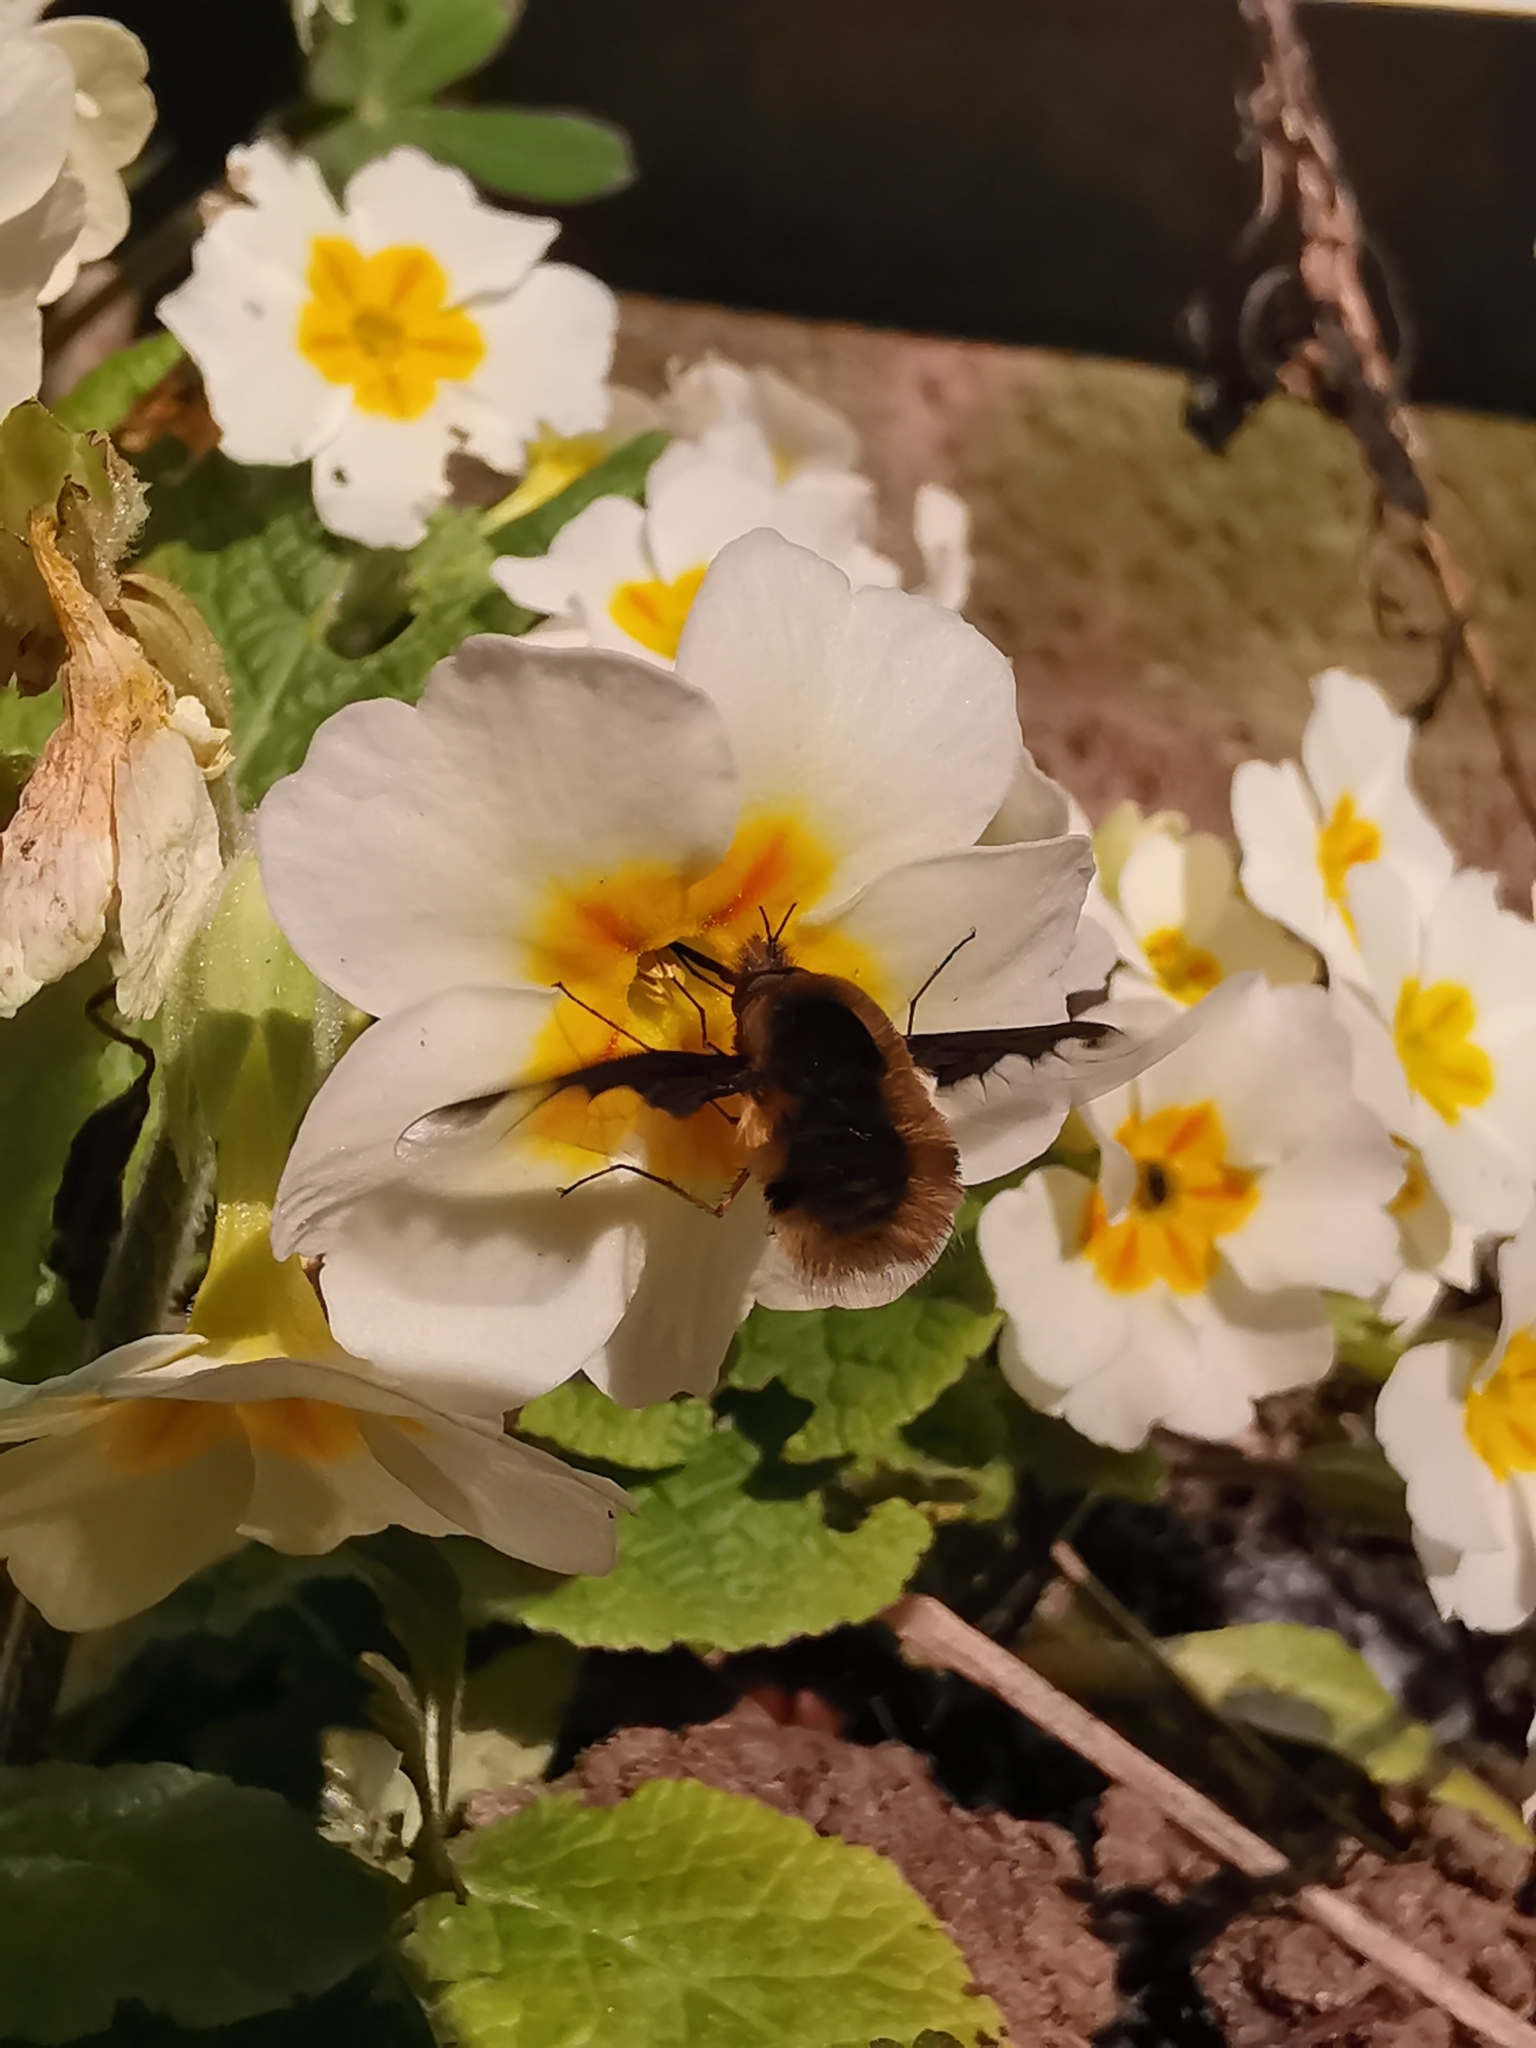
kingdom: Animalia
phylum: Arthropoda
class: Insecta
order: Diptera
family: Bombyliidae
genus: Bombylius
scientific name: Bombylius major
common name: Bee fly
